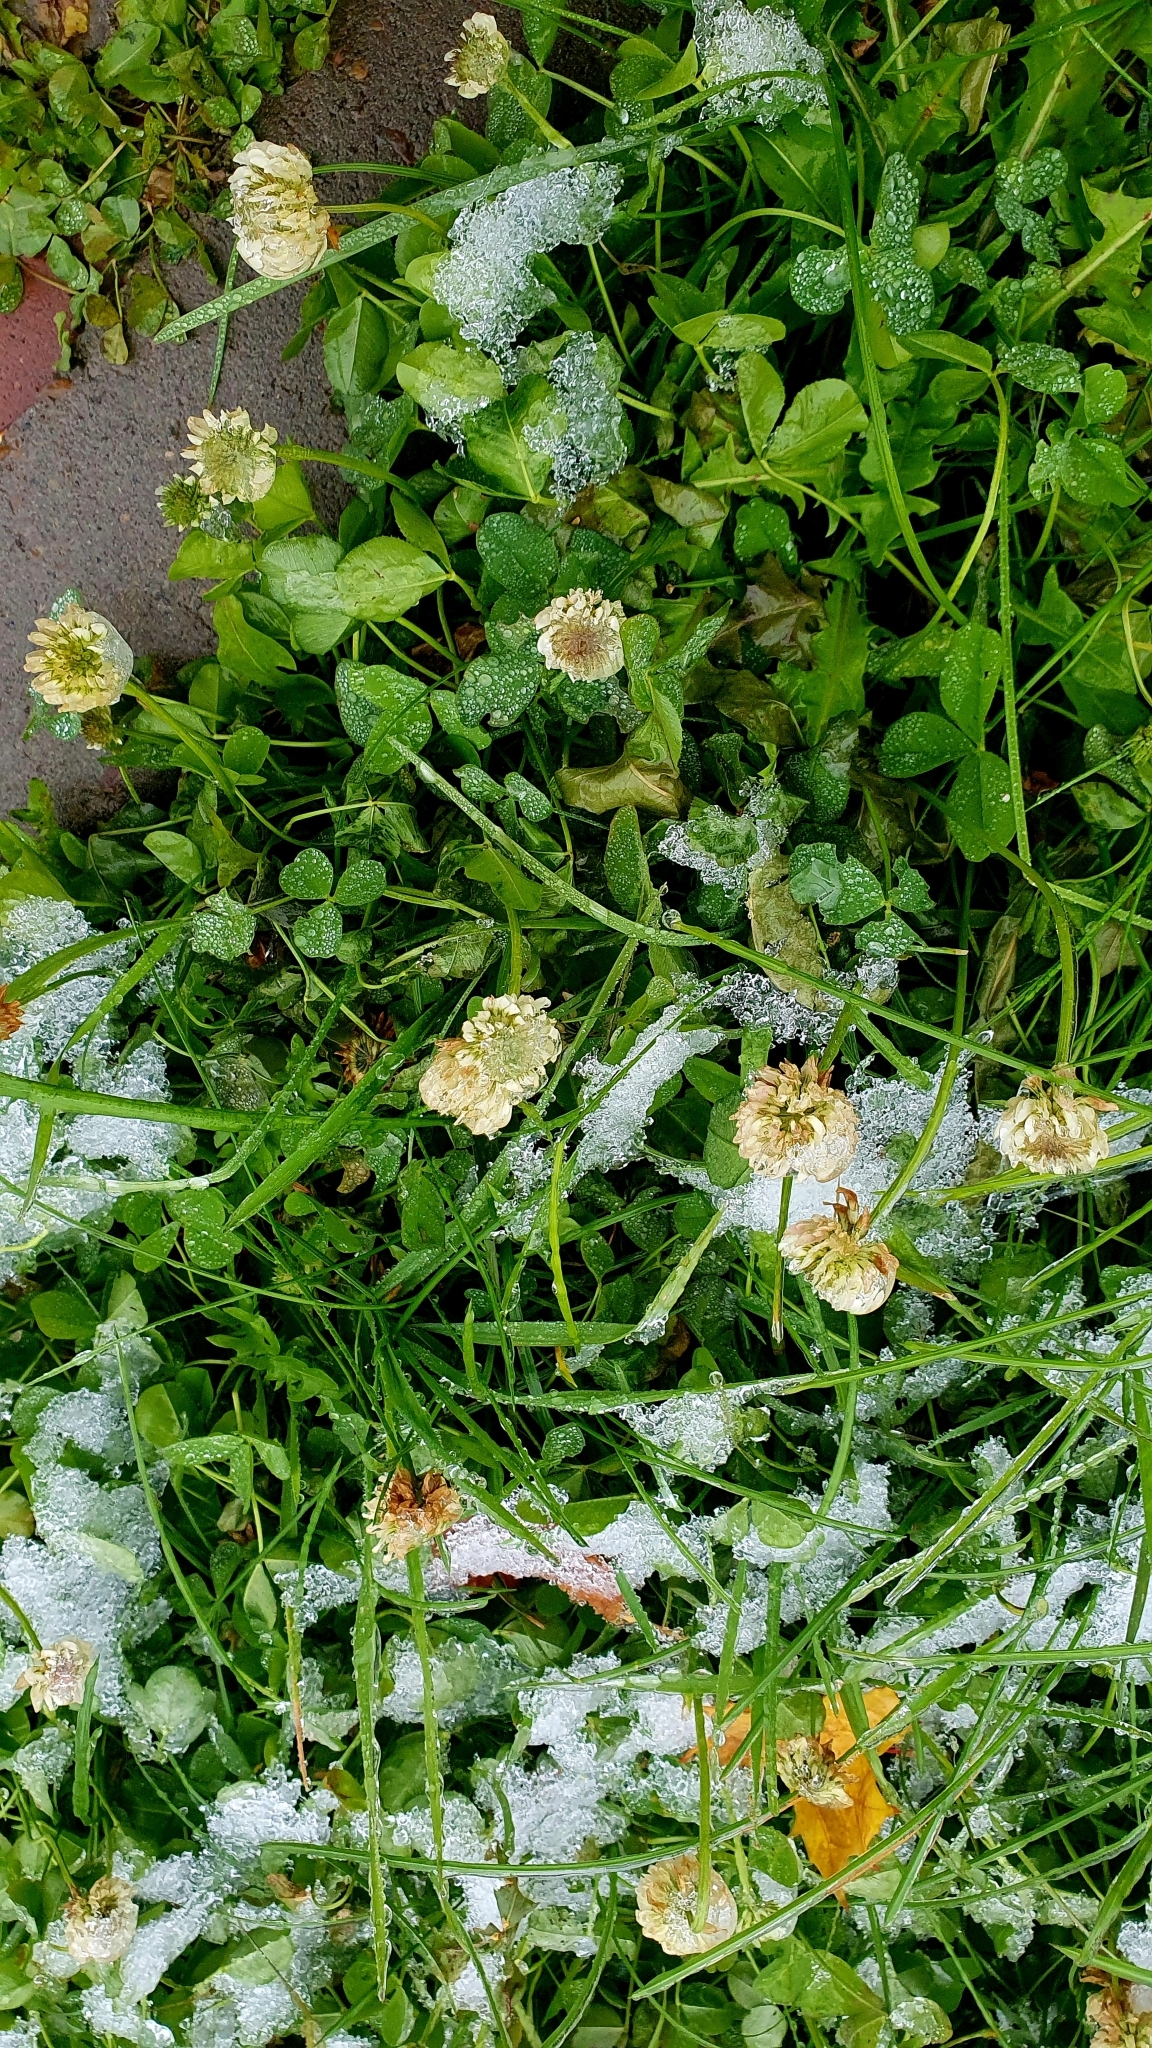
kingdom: Plantae
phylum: Tracheophyta
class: Magnoliopsida
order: Fabales
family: Fabaceae
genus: Trifolium
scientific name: Trifolium repens
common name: White clover
